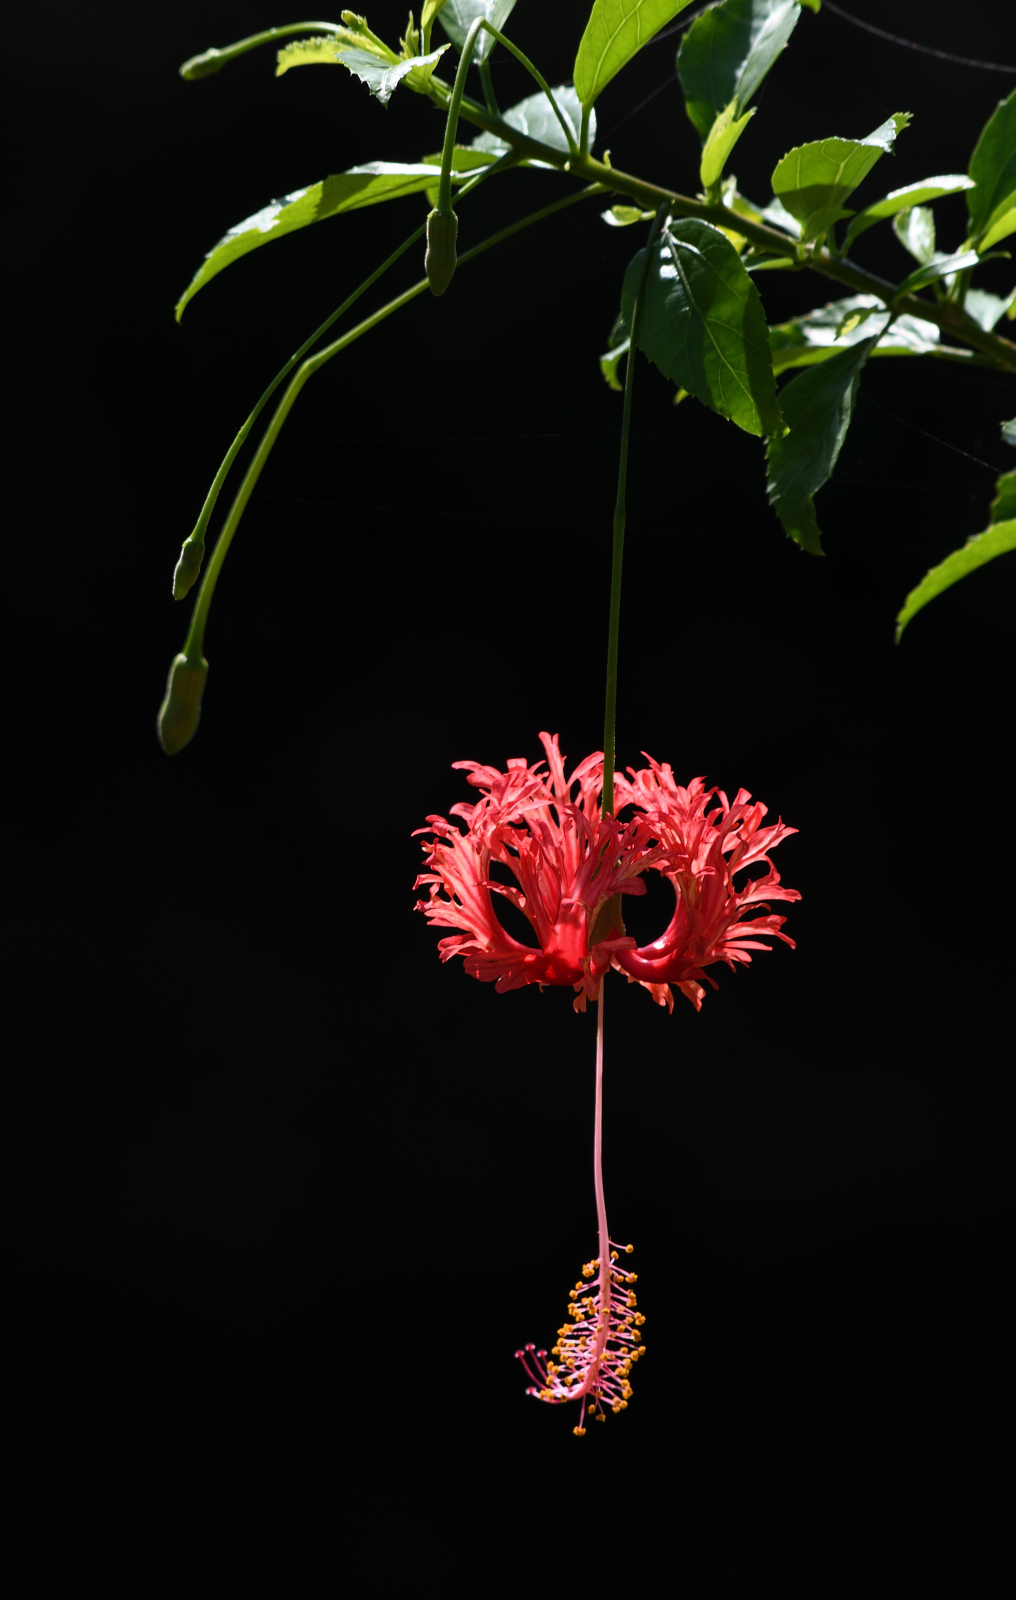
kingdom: Plantae
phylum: Tracheophyta
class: Magnoliopsida
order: Malvales
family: Malvaceae
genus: Hibiscus
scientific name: Hibiscus schizopetalus
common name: Fringed rosemallow
